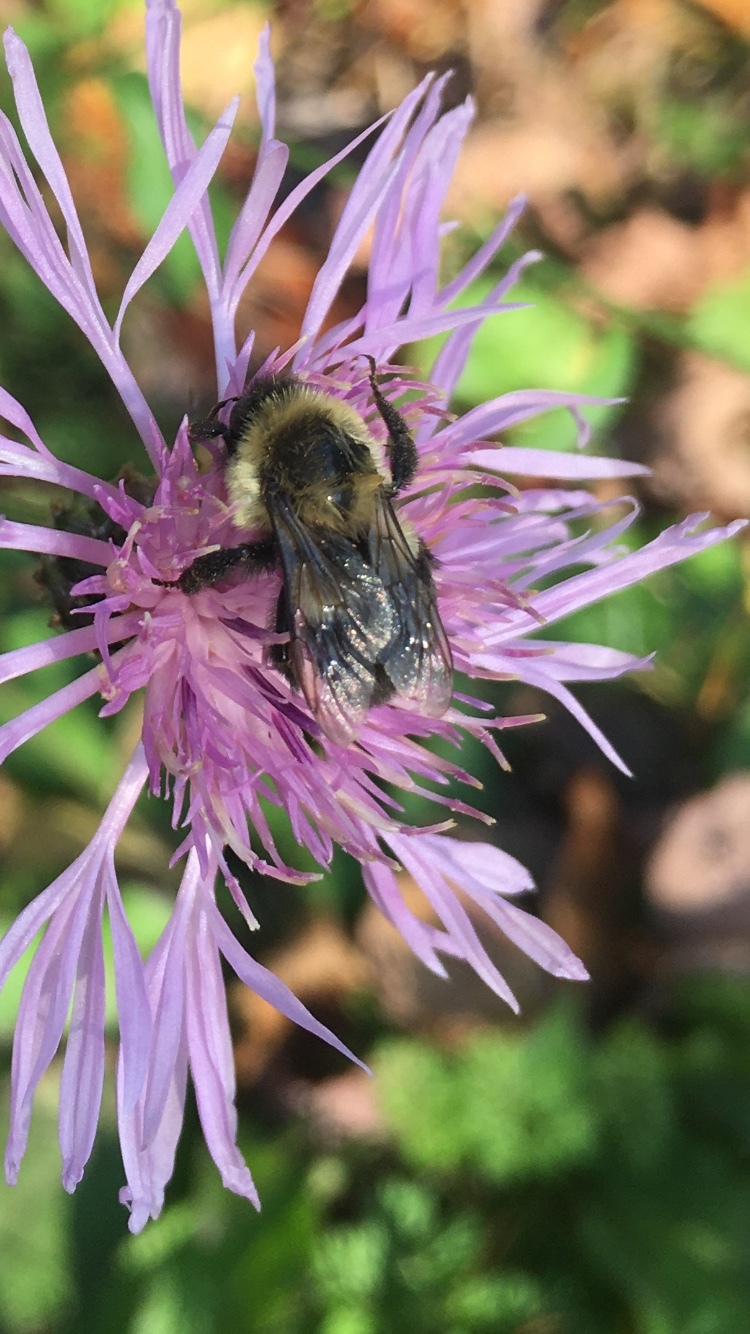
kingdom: Animalia
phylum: Arthropoda
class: Insecta
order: Hymenoptera
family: Apidae
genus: Bombus
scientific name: Bombus impatiens
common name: Common eastern bumble bee
